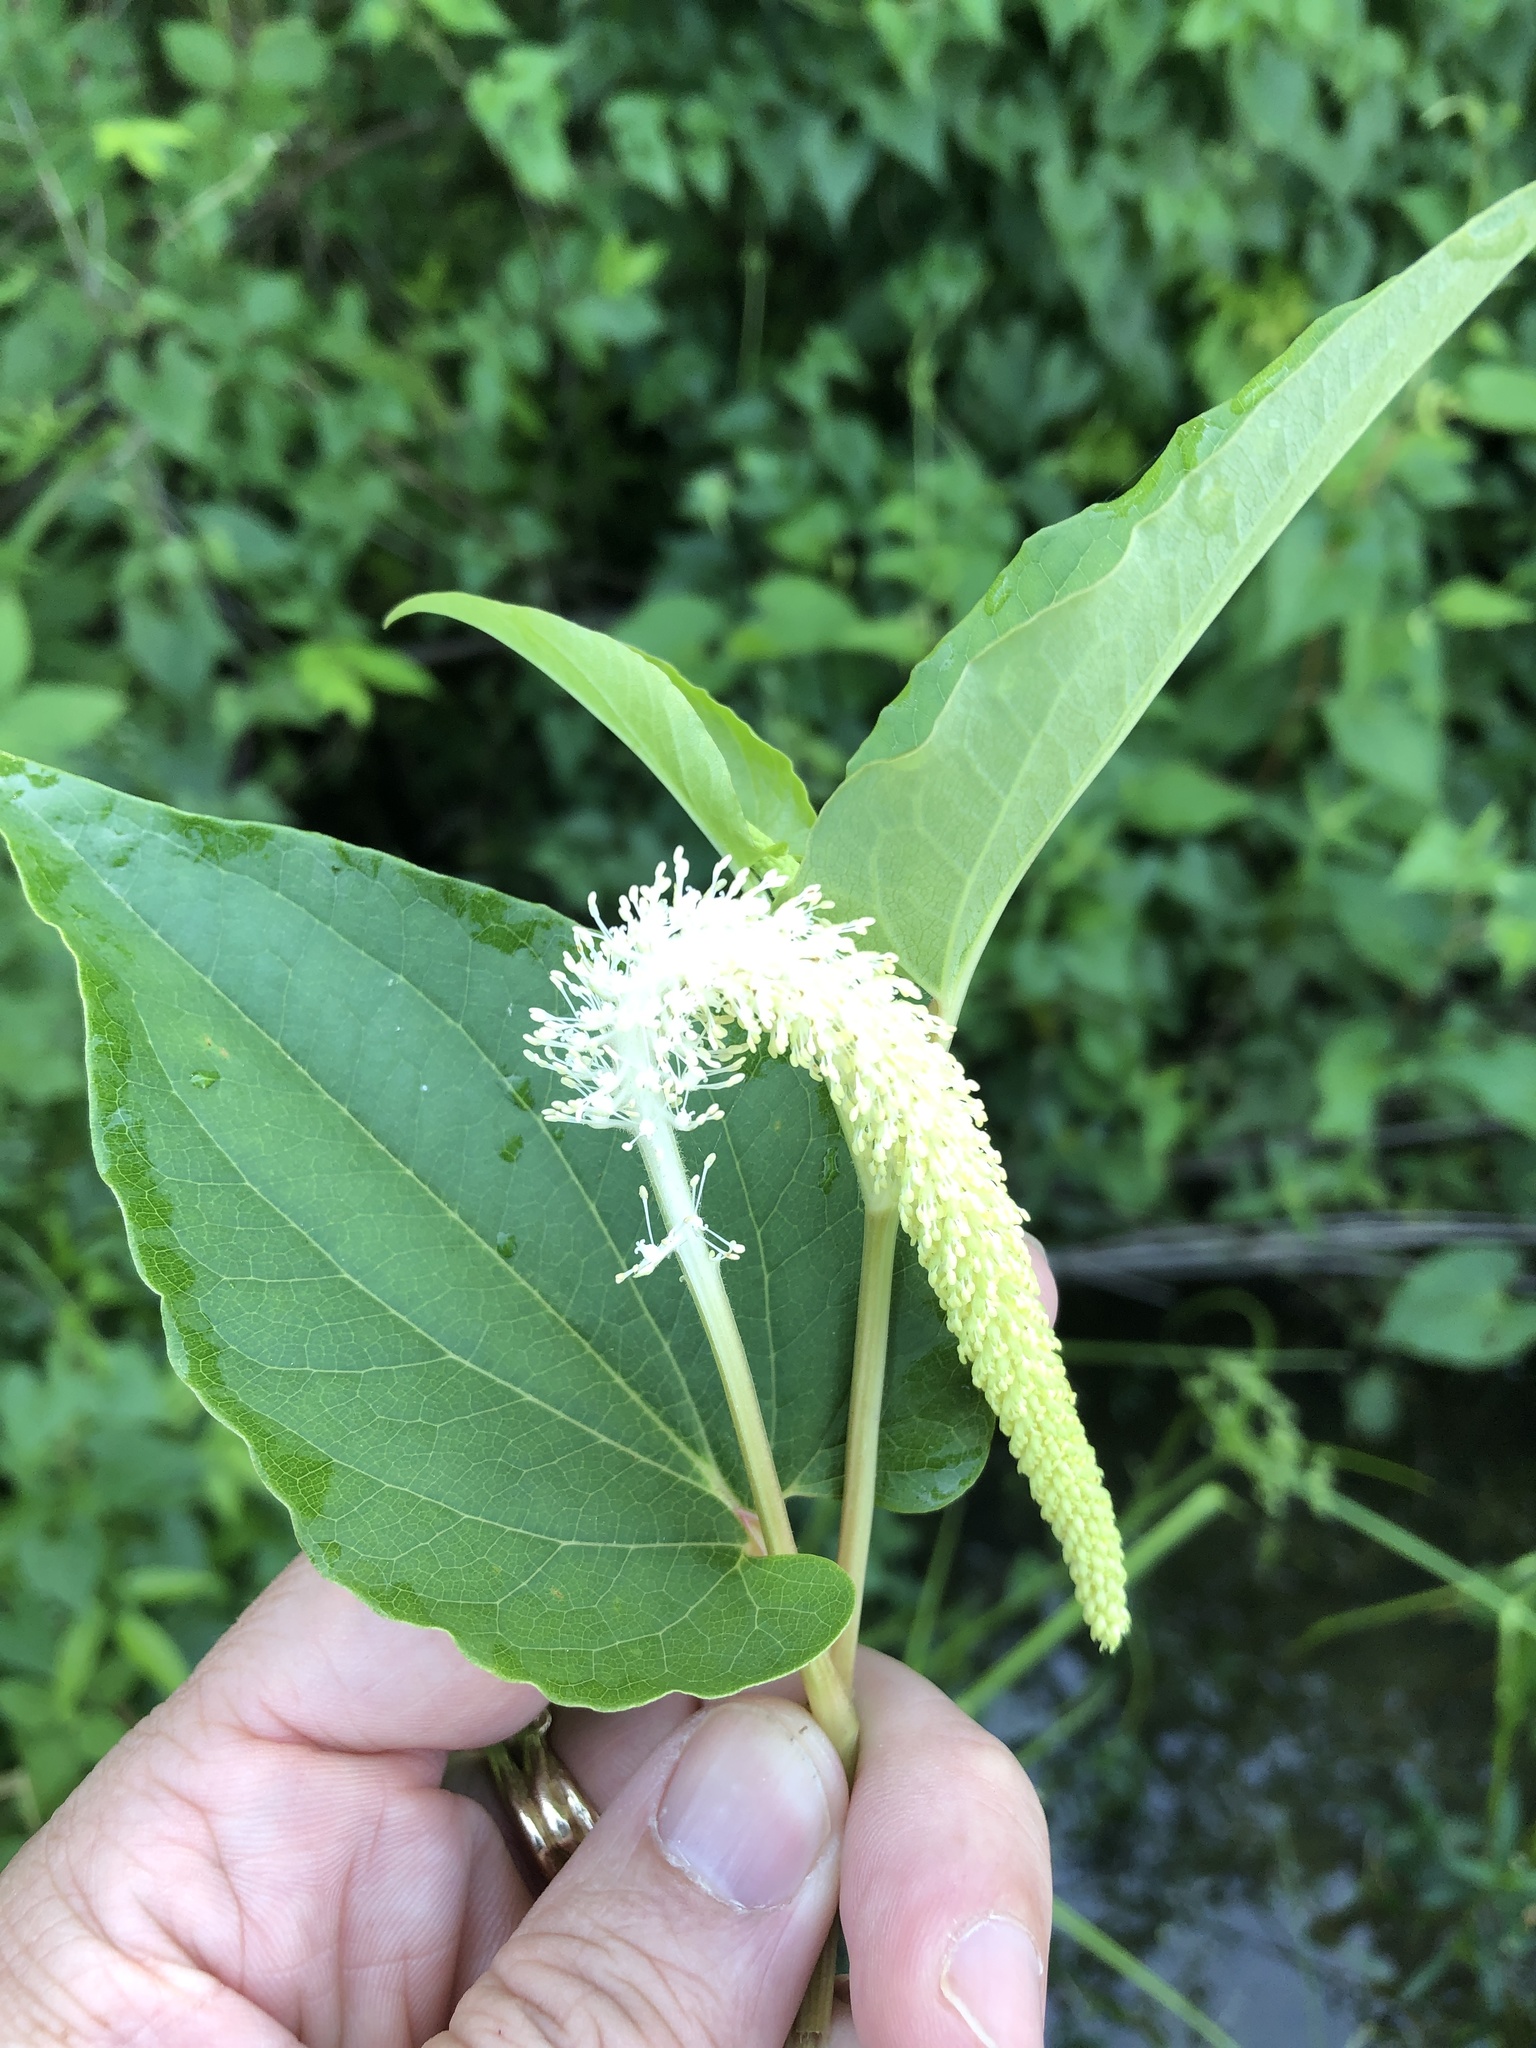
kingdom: Plantae
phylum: Tracheophyta
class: Magnoliopsida
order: Piperales
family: Saururaceae
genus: Saururus
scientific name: Saururus cernuus
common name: Lizard's-tail
